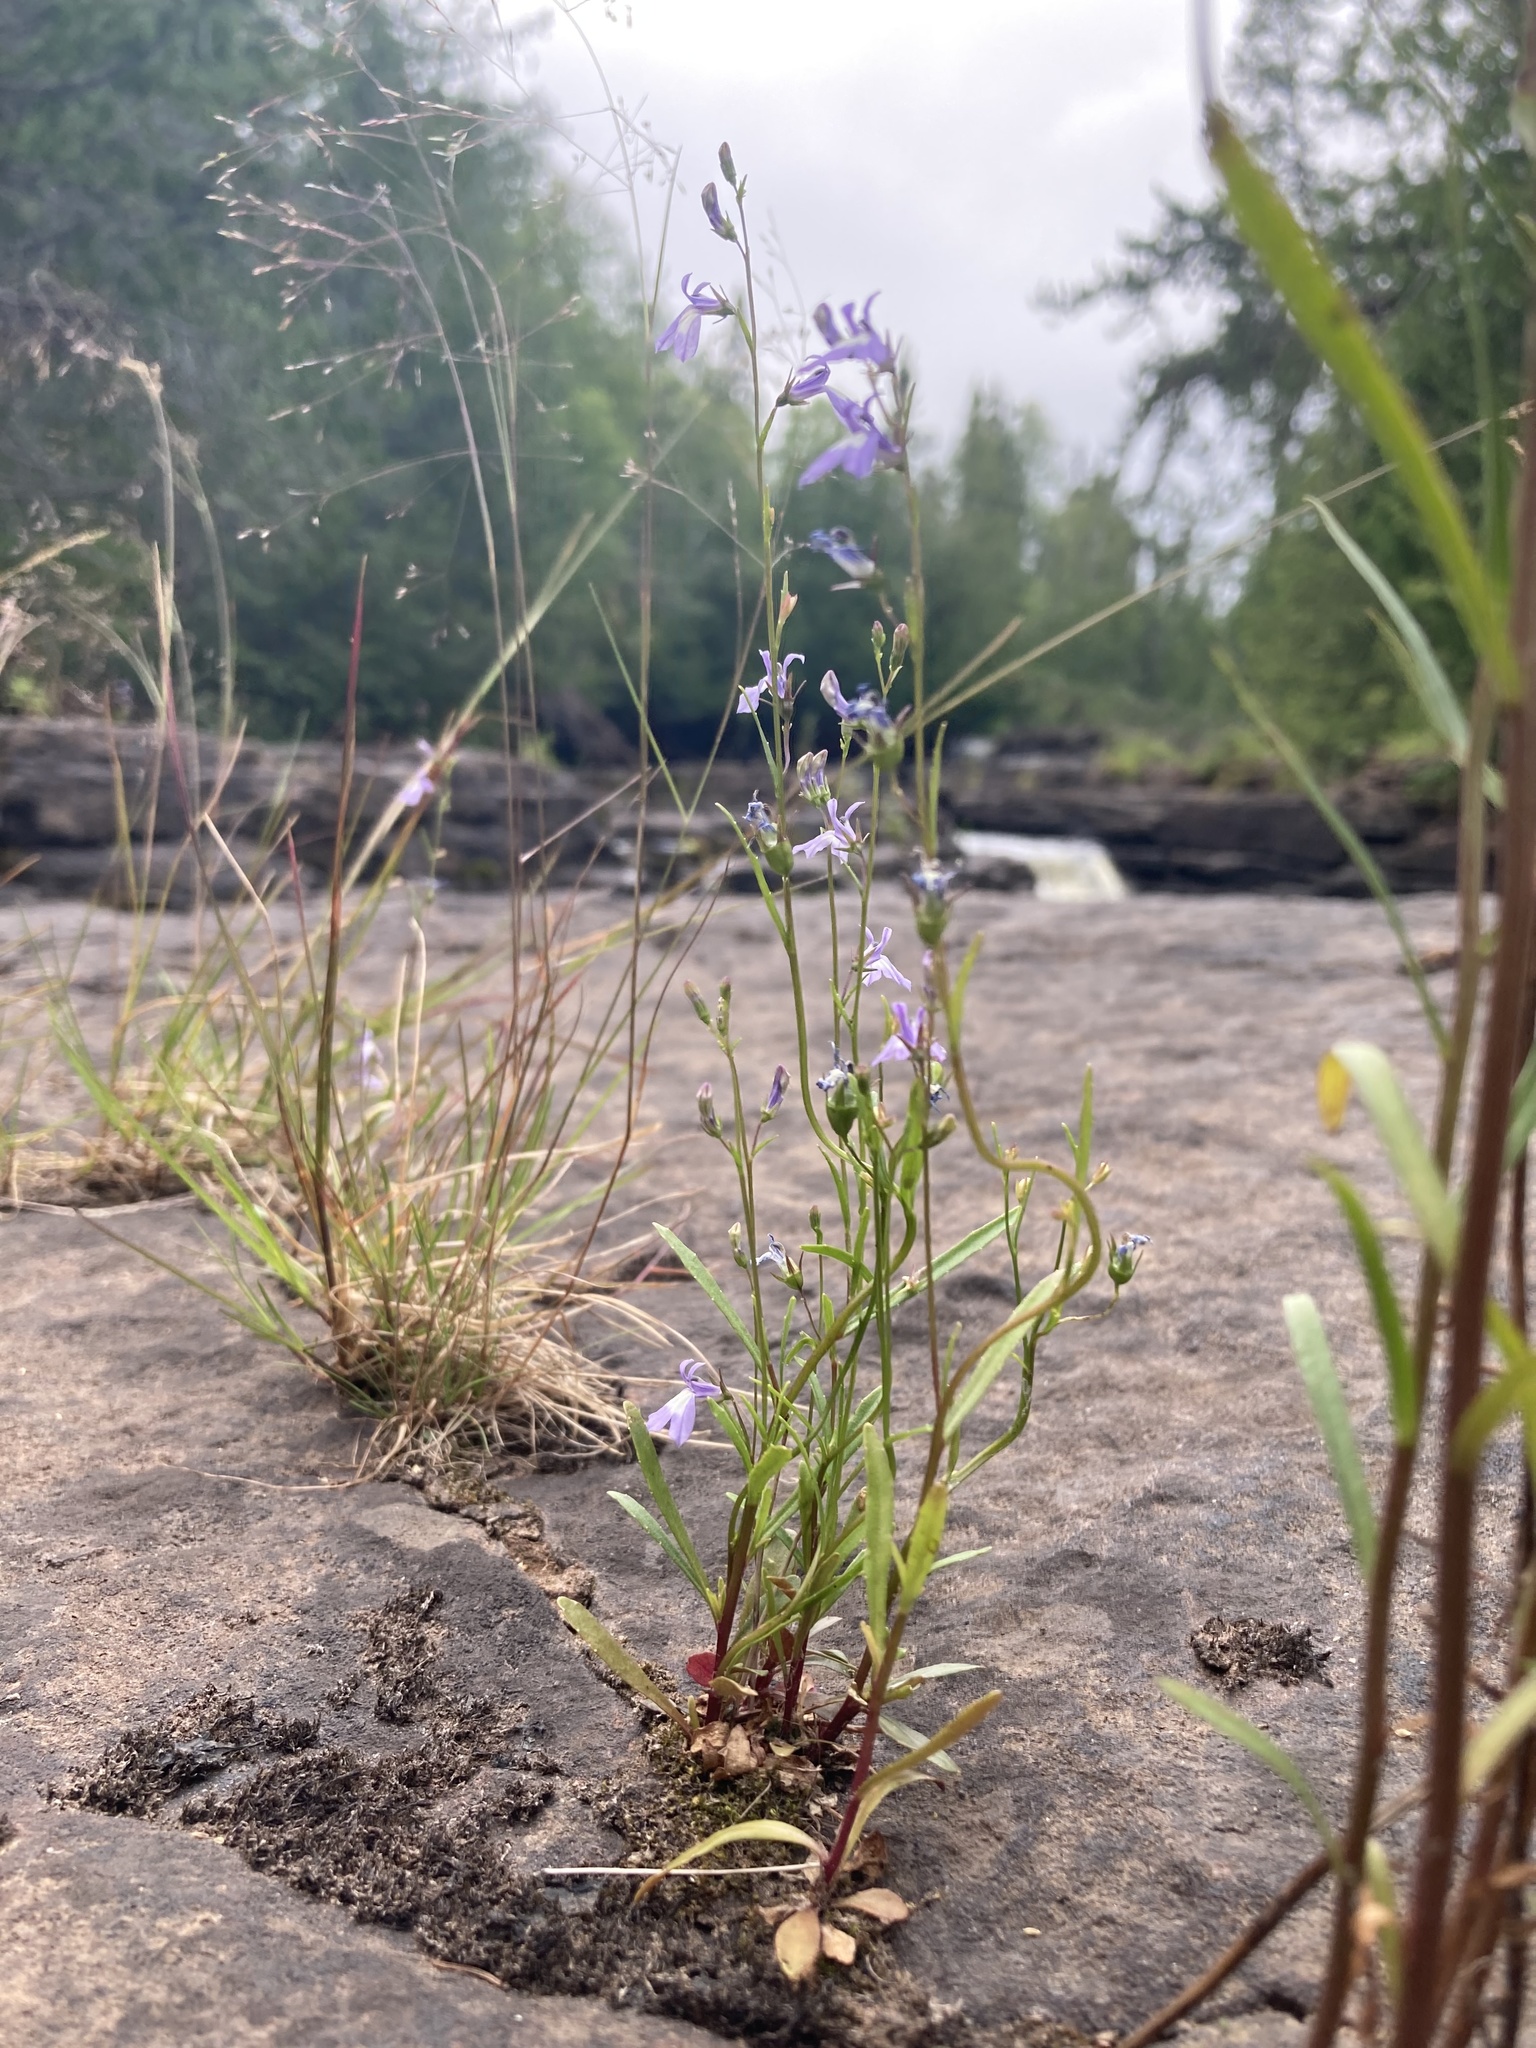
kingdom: Plantae
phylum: Tracheophyta
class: Magnoliopsida
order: Asterales
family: Campanulaceae
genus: Lobelia
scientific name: Lobelia kalmii
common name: Kalm's lobelia
